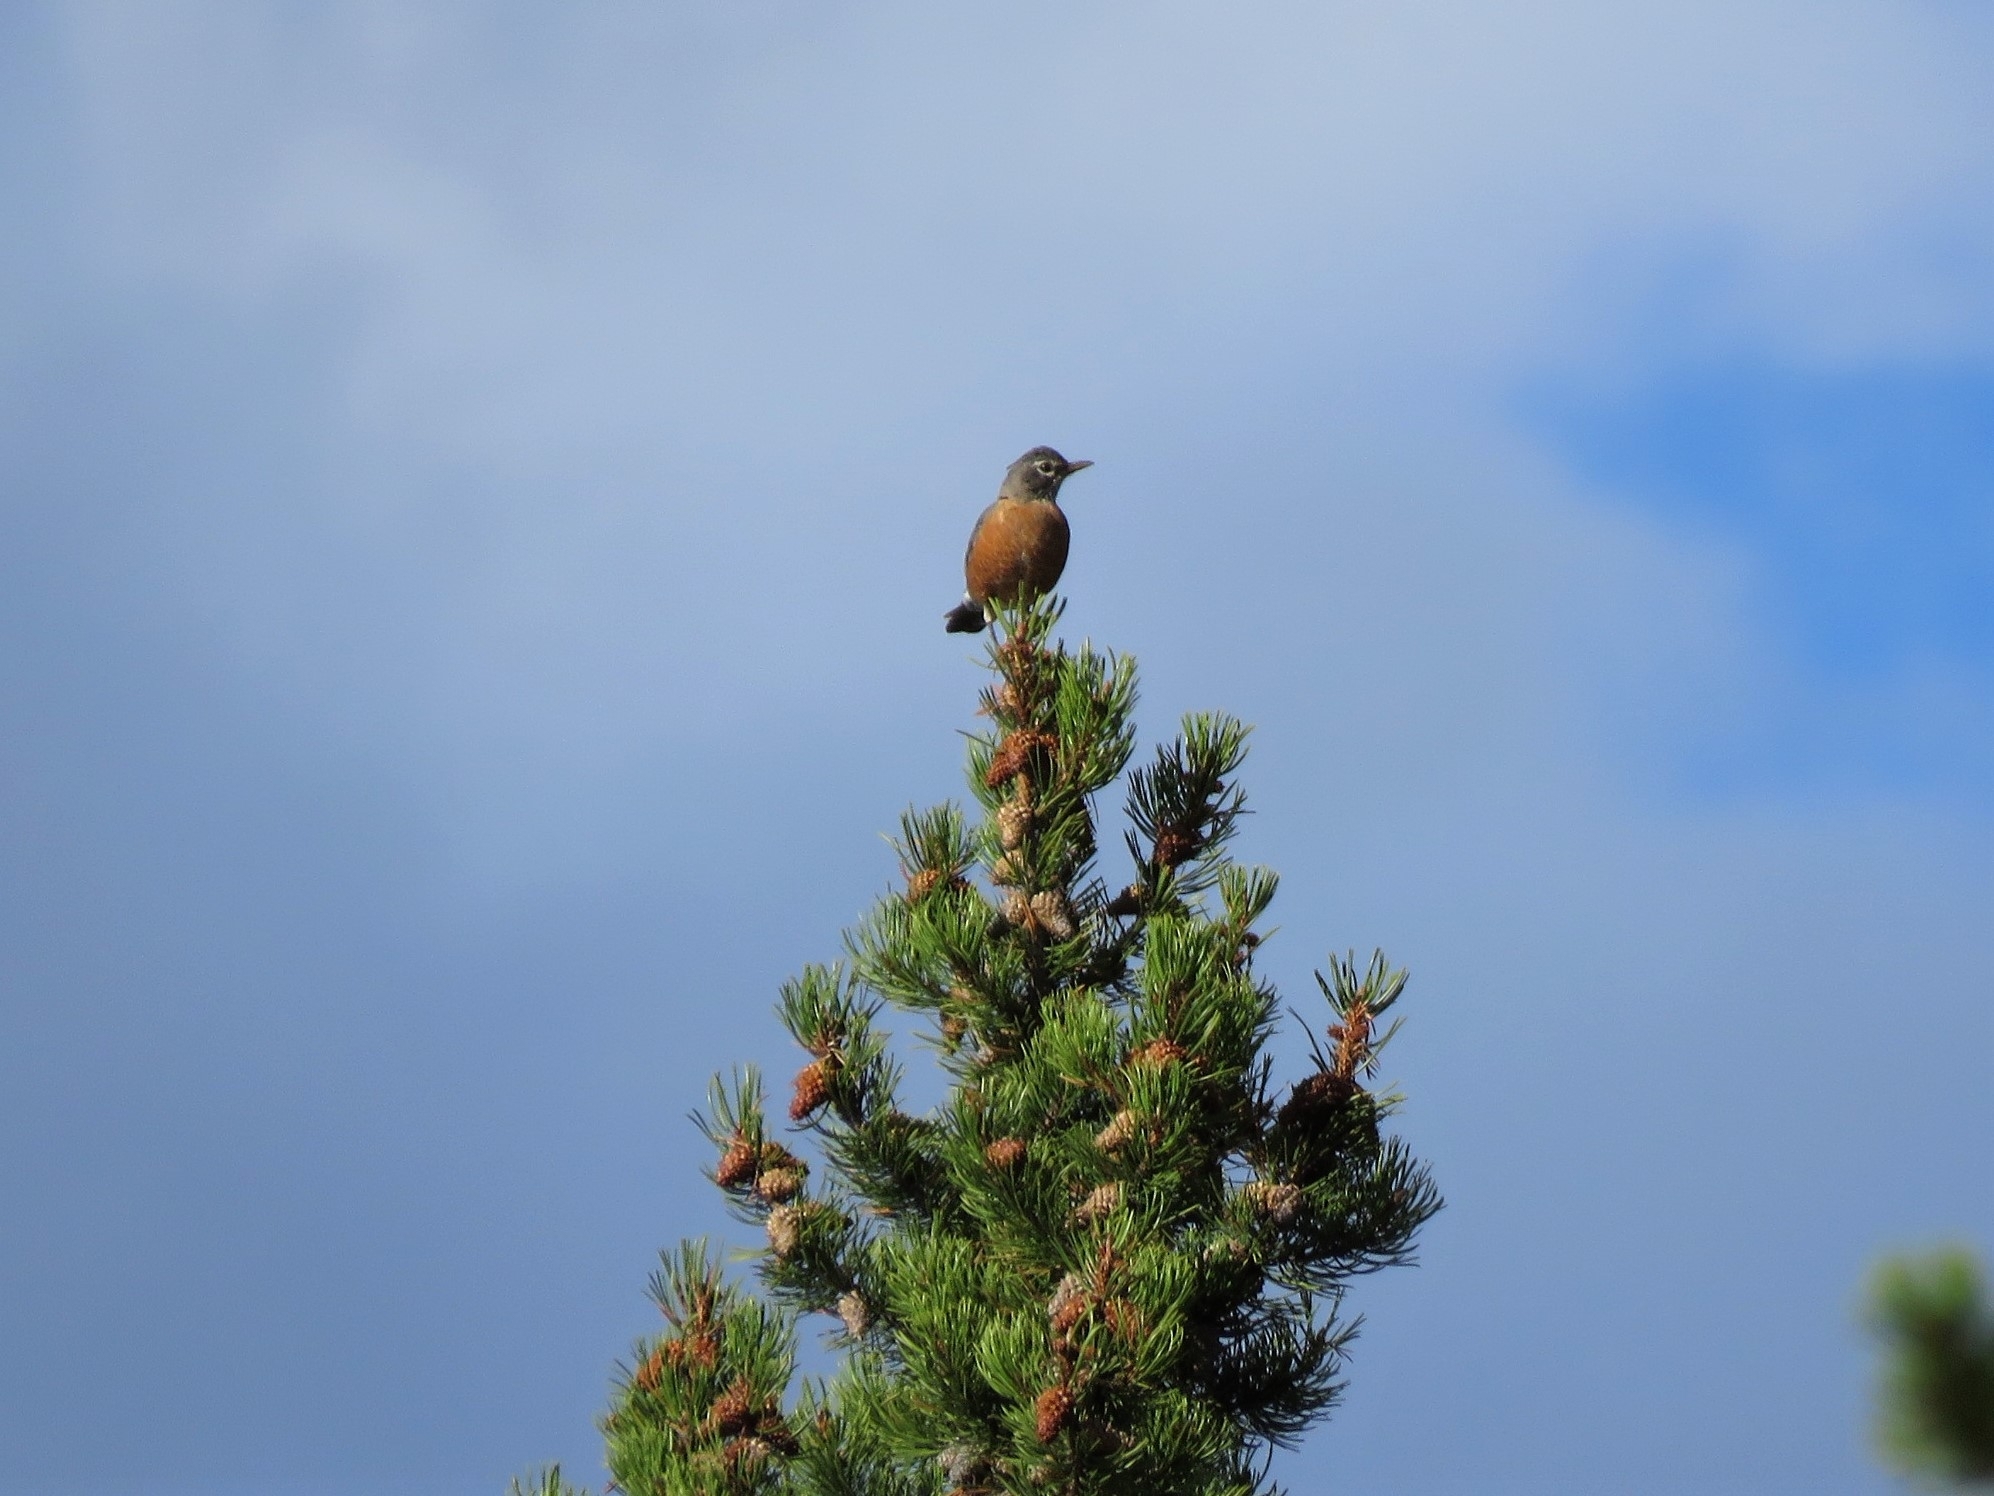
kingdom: Animalia
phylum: Chordata
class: Aves
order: Passeriformes
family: Turdidae
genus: Turdus
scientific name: Turdus migratorius
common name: American robin
